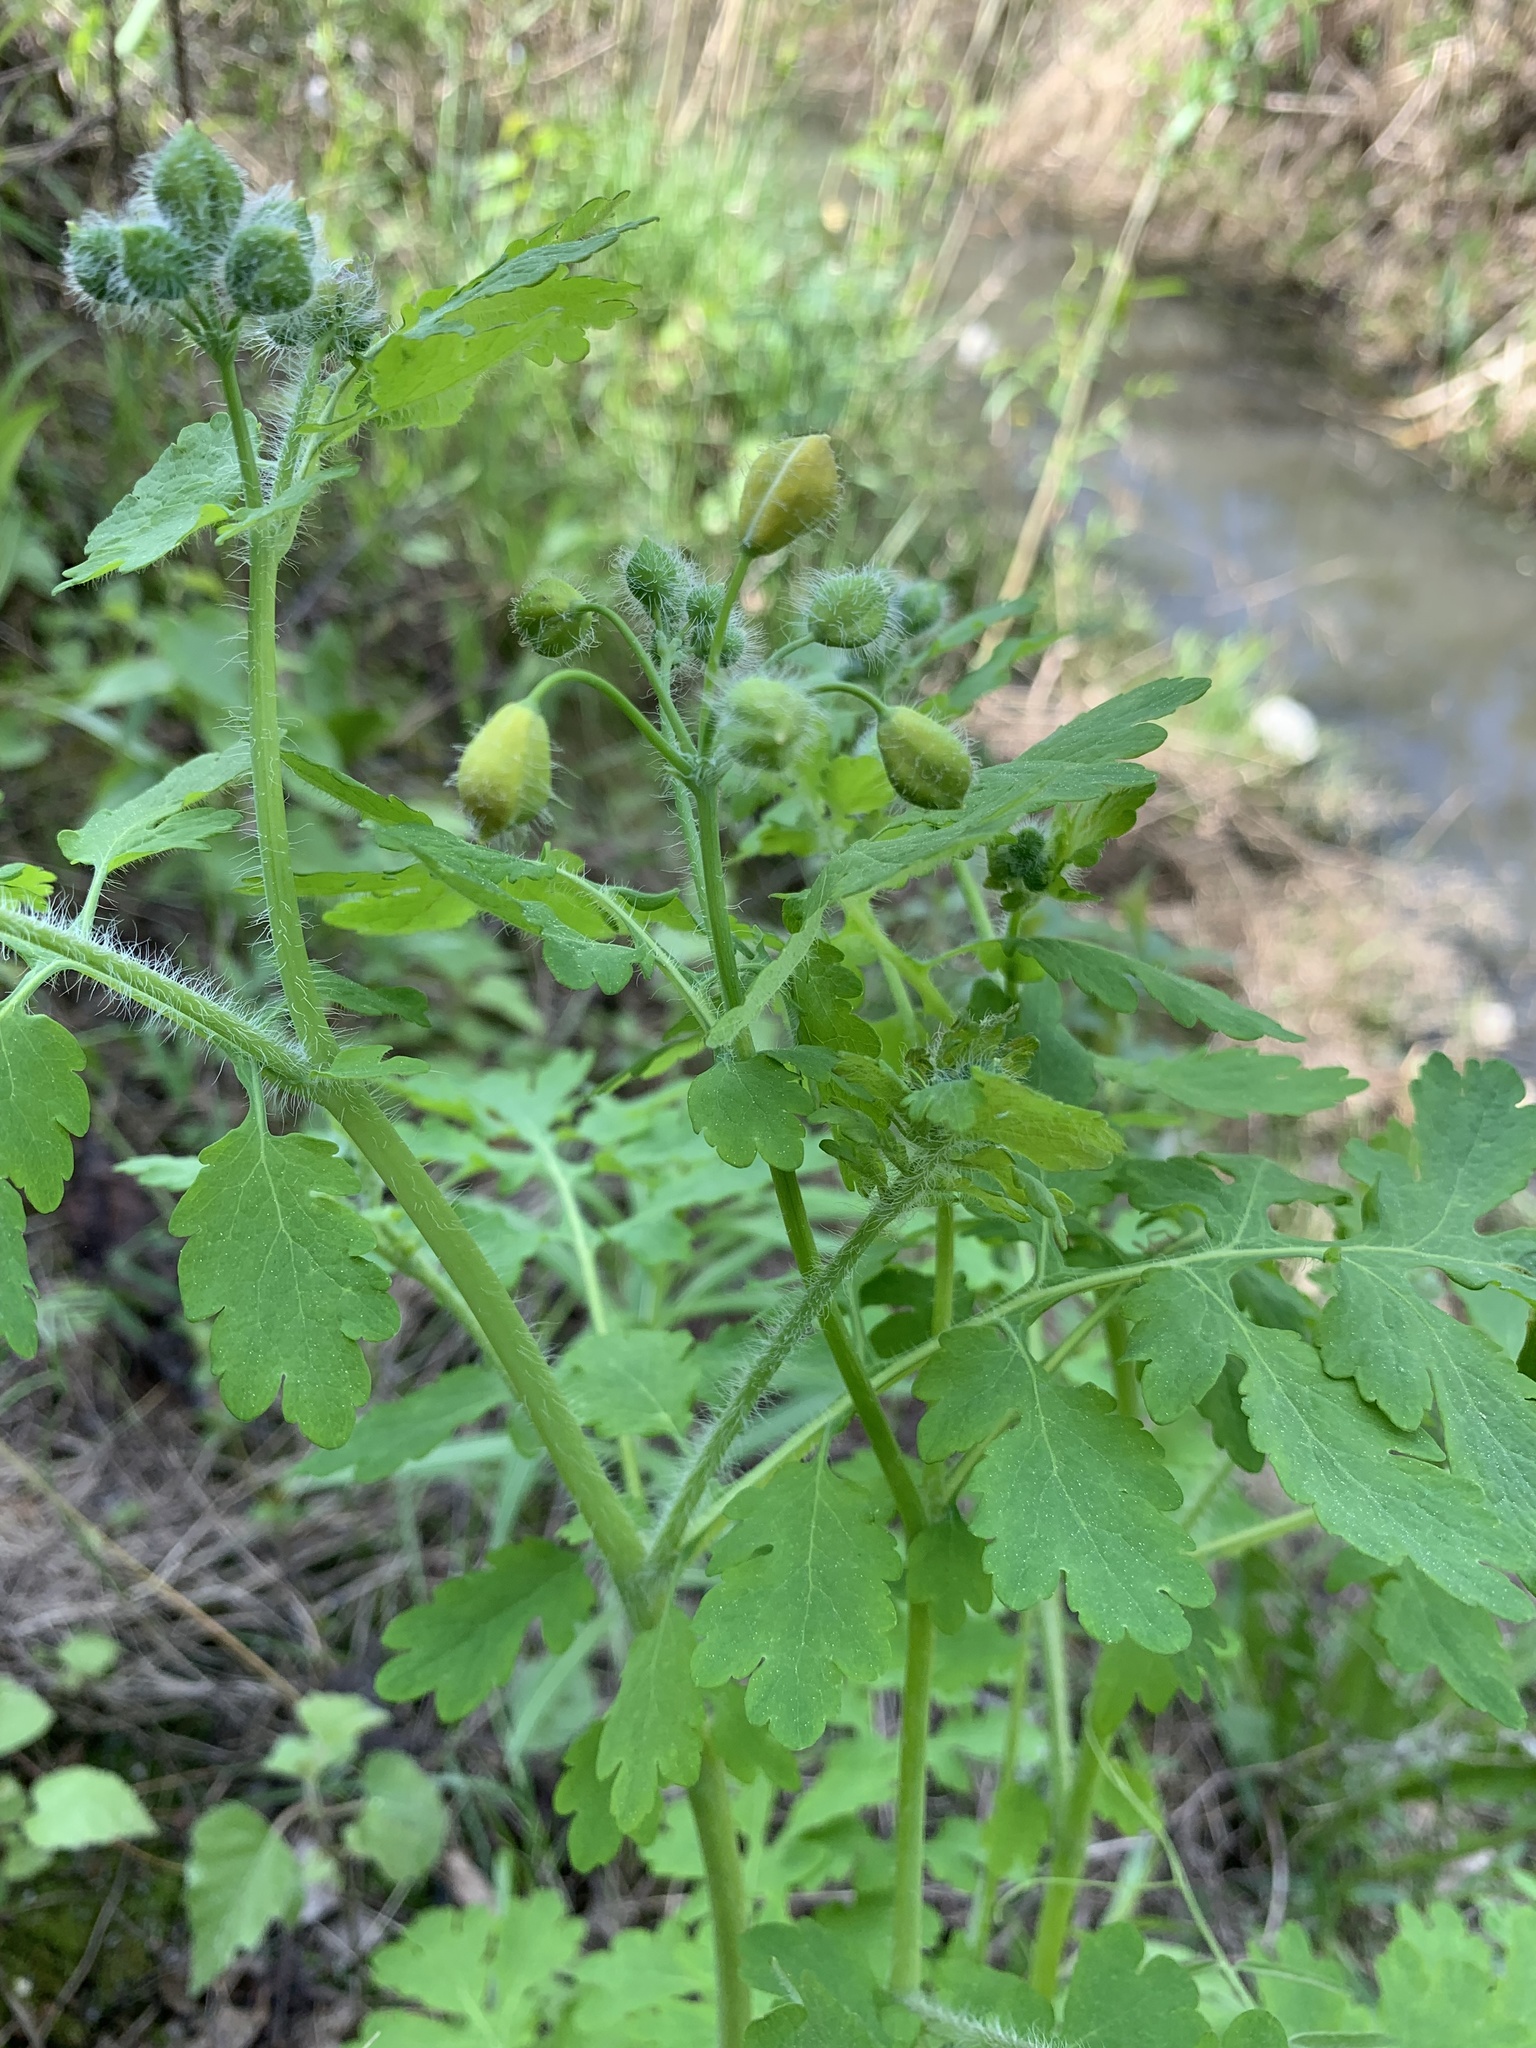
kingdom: Plantae
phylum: Tracheophyta
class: Magnoliopsida
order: Ranunculales
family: Papaveraceae
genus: Chelidonium
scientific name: Chelidonium majus
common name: Greater celandine
